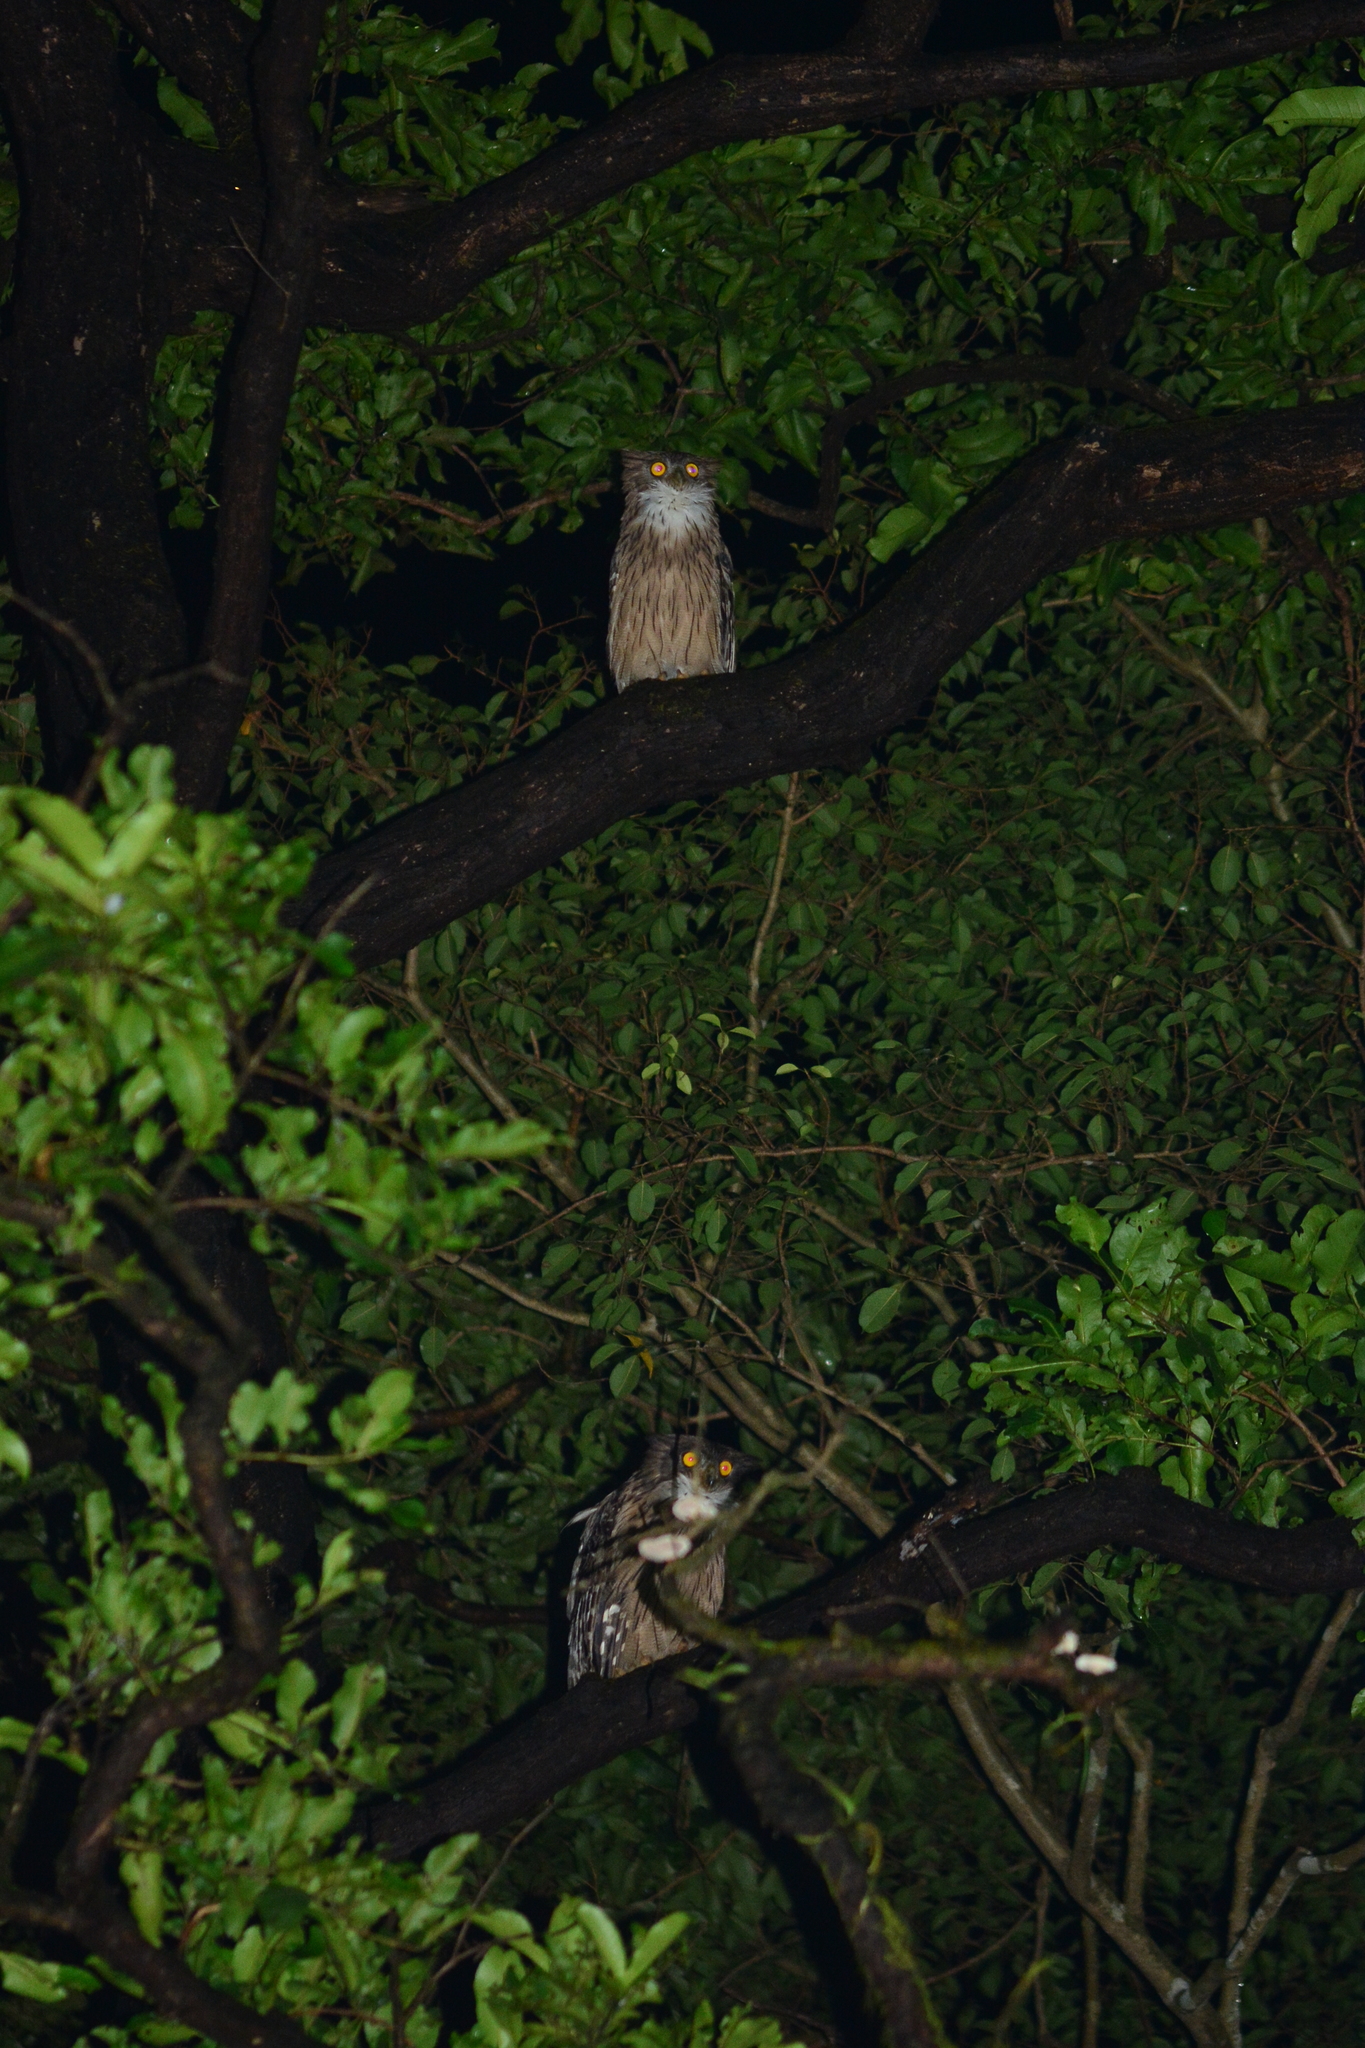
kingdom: Animalia
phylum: Chordata
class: Aves
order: Strigiformes
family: Strigidae
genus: Ketupa
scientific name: Ketupa zeylonensis
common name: Brown fish owl
